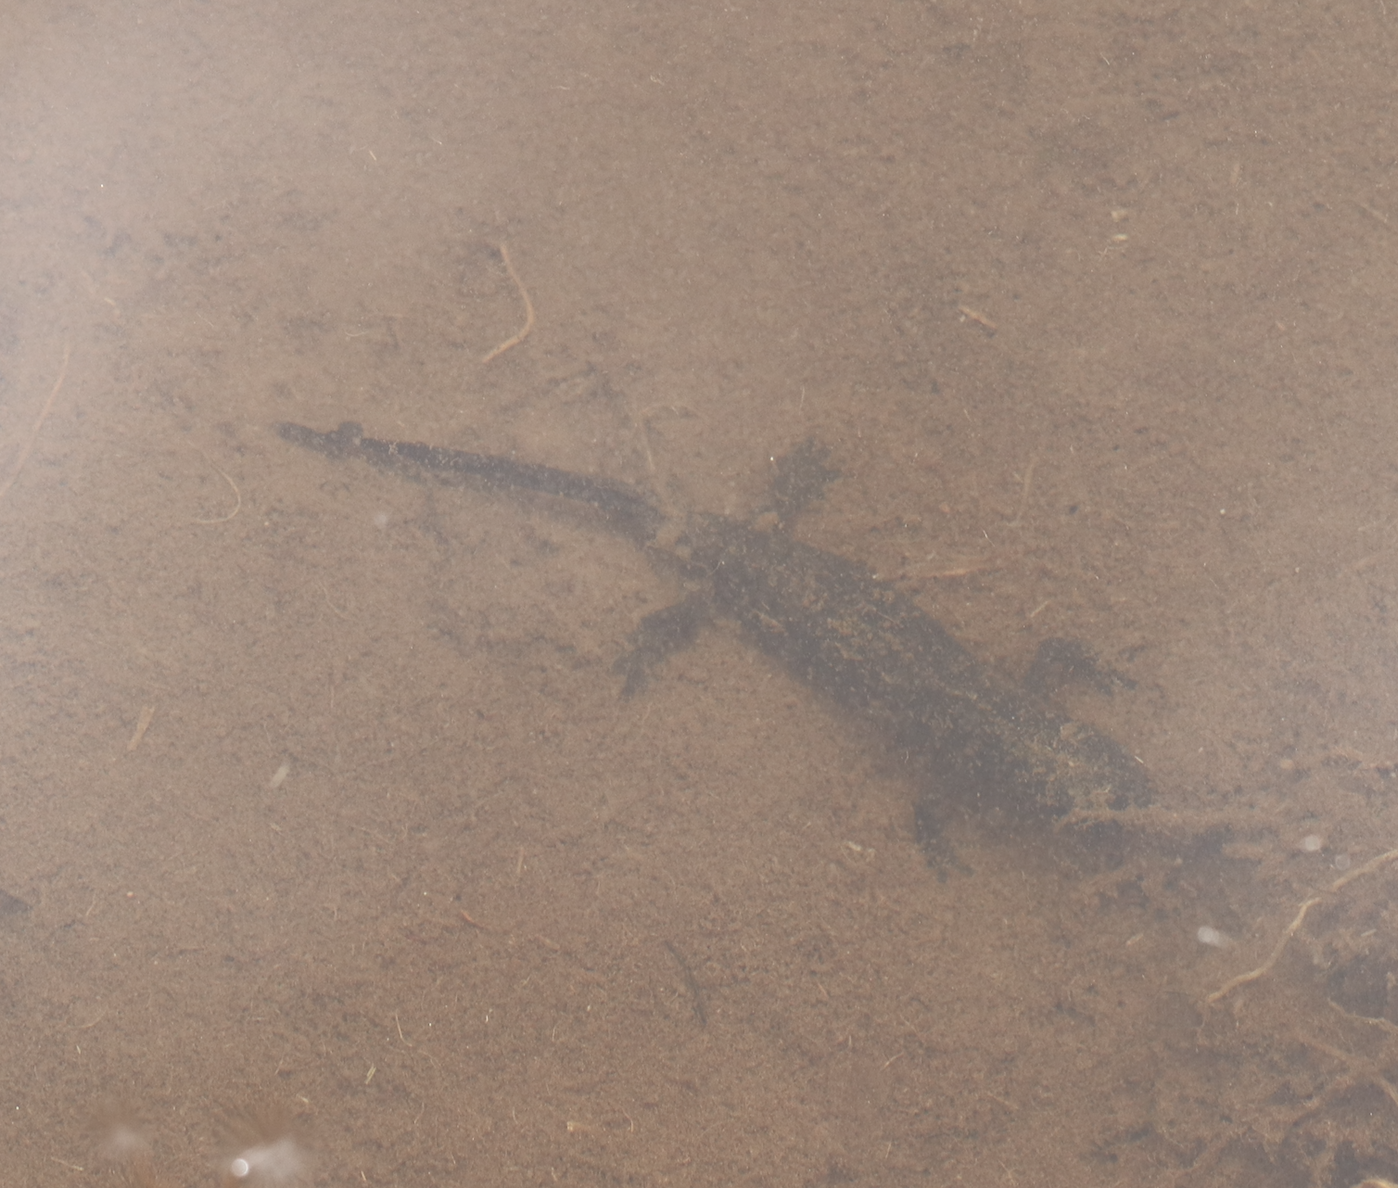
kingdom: Animalia
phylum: Chordata
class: Amphibia
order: Caudata
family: Salamandridae
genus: Ichthyosaura
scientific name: Ichthyosaura alpestris
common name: Alpine newt
